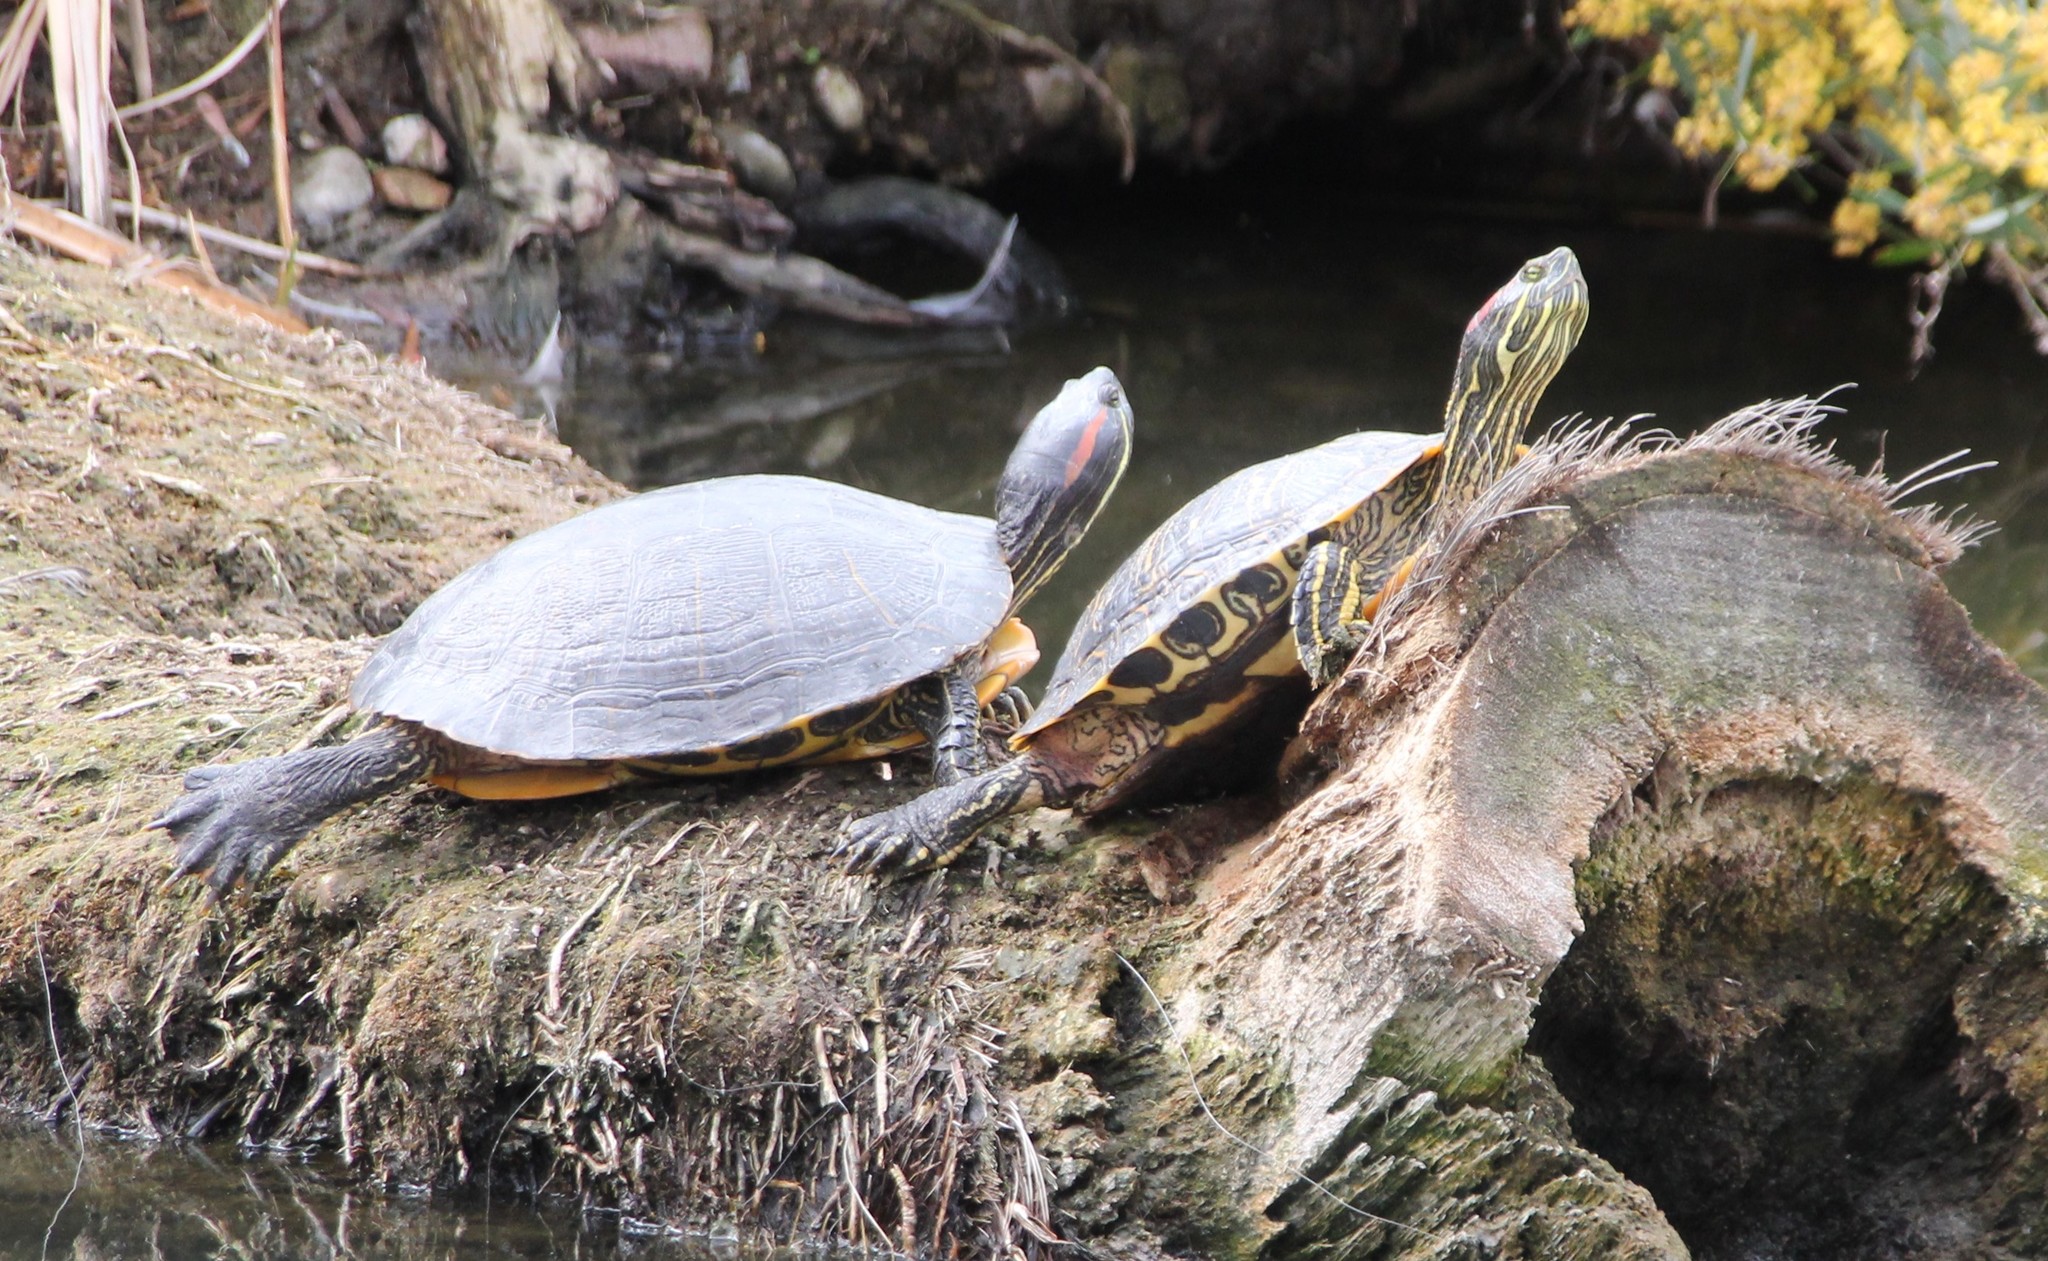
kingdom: Animalia
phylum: Chordata
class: Testudines
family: Emydidae
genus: Trachemys
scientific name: Trachemys scripta
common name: Slider
